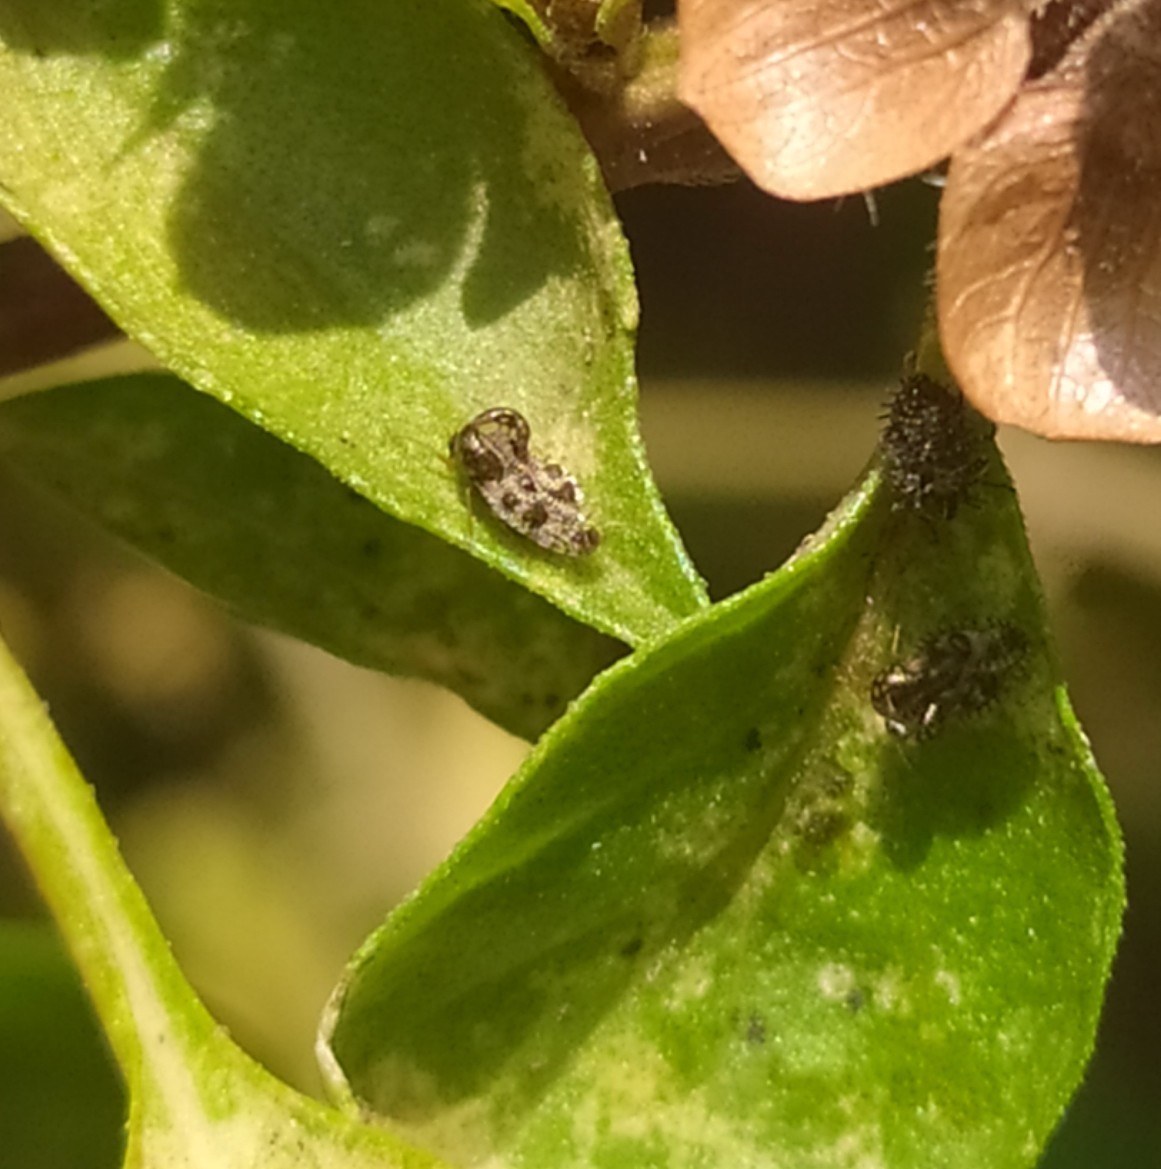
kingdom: Animalia
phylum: Arthropoda
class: Insecta
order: Hemiptera
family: Tingidae
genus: Cochlochila
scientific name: Cochlochila bullita
